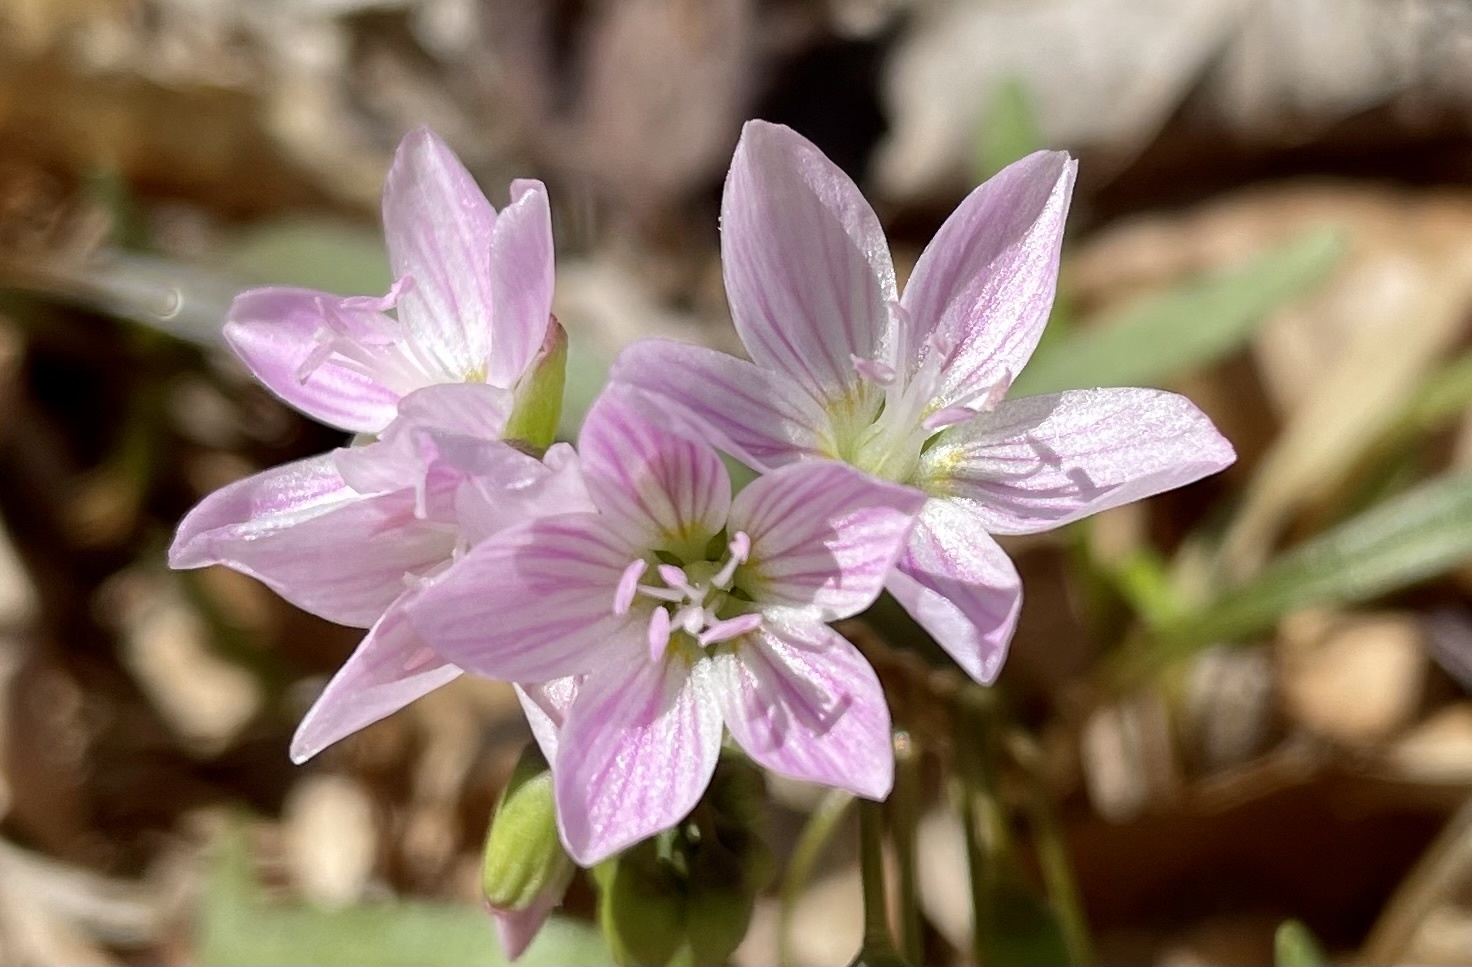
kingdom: Plantae
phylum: Tracheophyta
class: Magnoliopsida
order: Caryophyllales
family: Montiaceae
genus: Claytonia
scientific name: Claytonia virginica
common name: Virginia springbeauty
